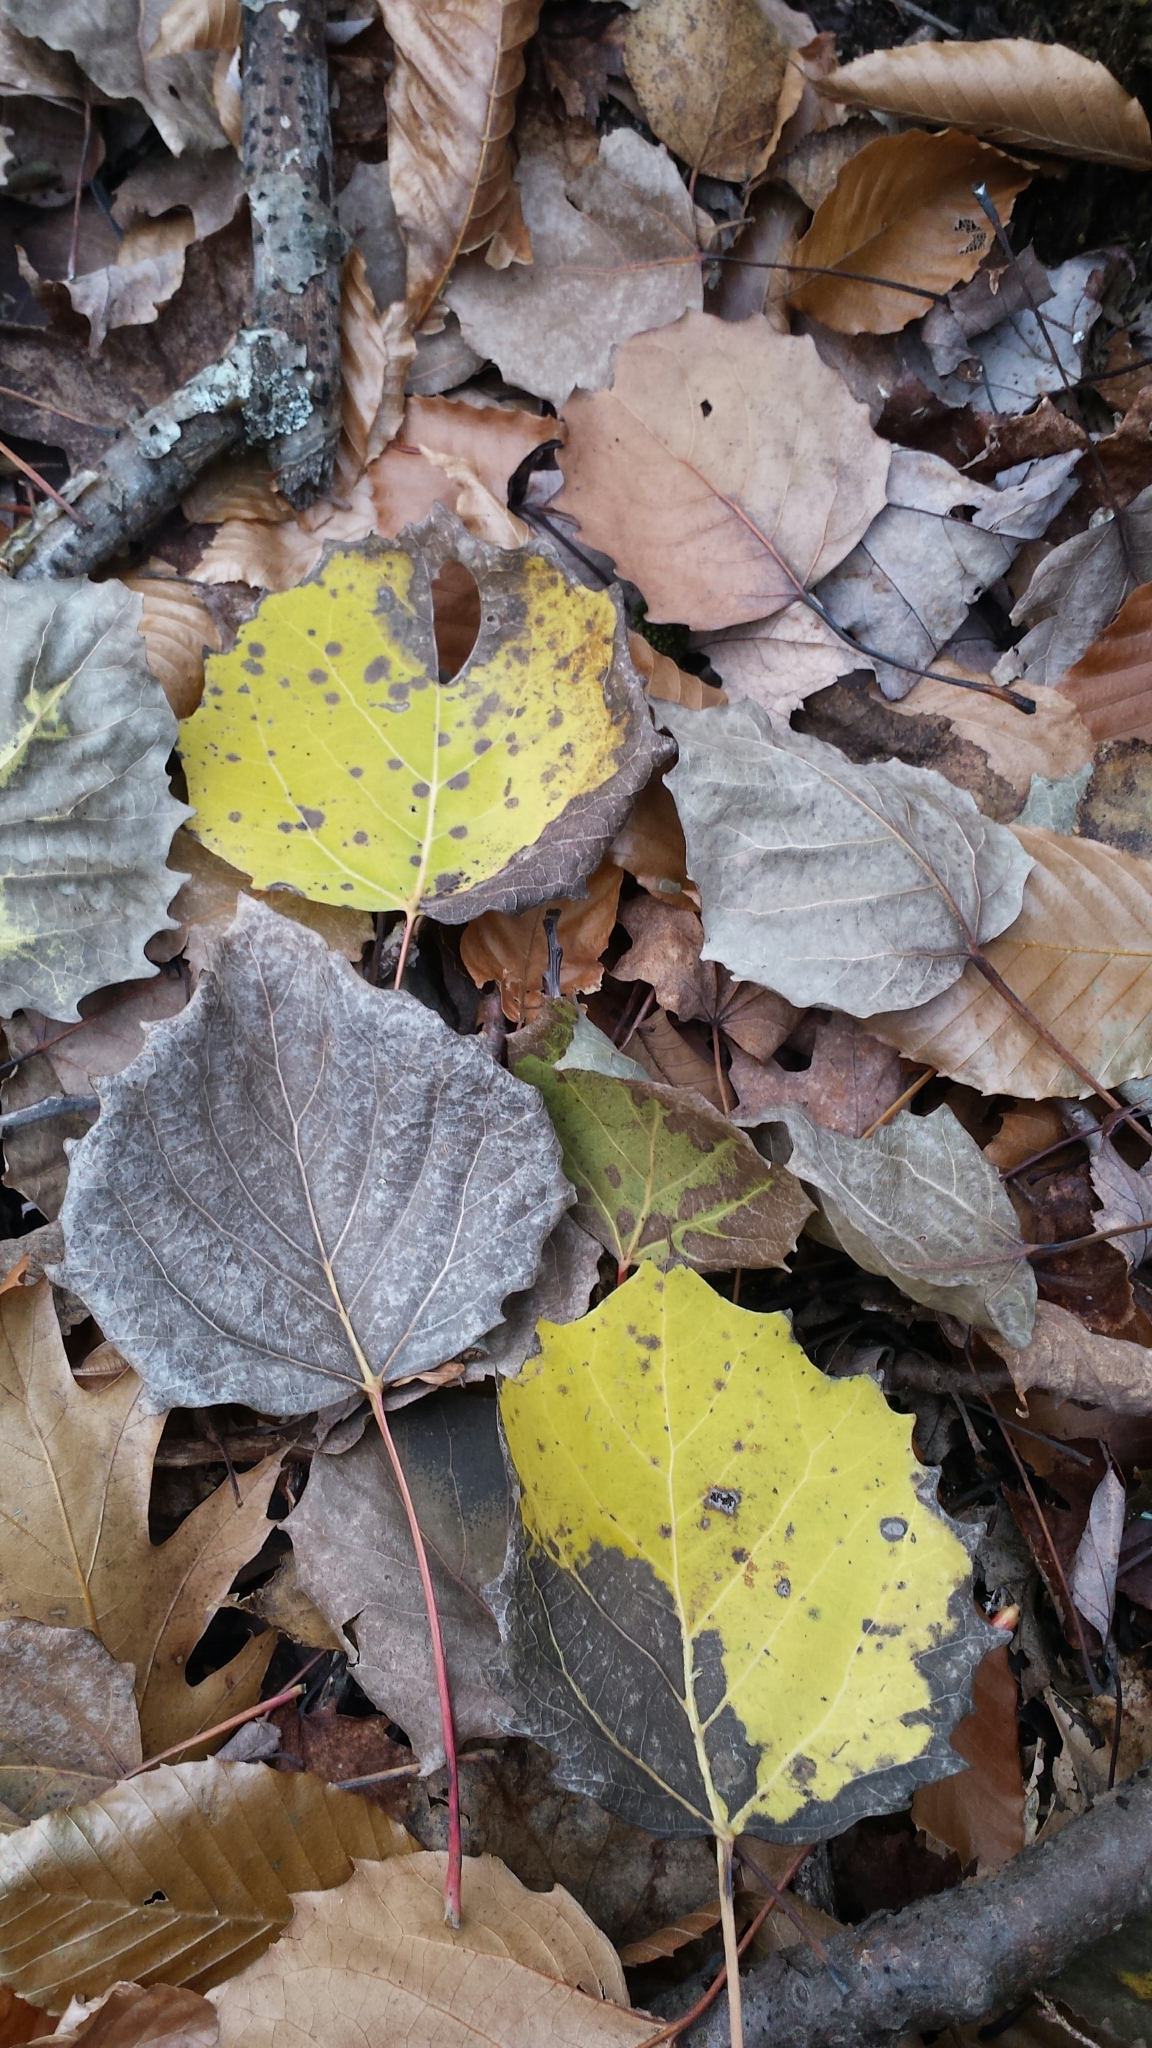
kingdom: Plantae
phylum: Tracheophyta
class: Magnoliopsida
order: Malpighiales
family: Salicaceae
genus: Populus
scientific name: Populus grandidentata
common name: Bigtooth aspen
